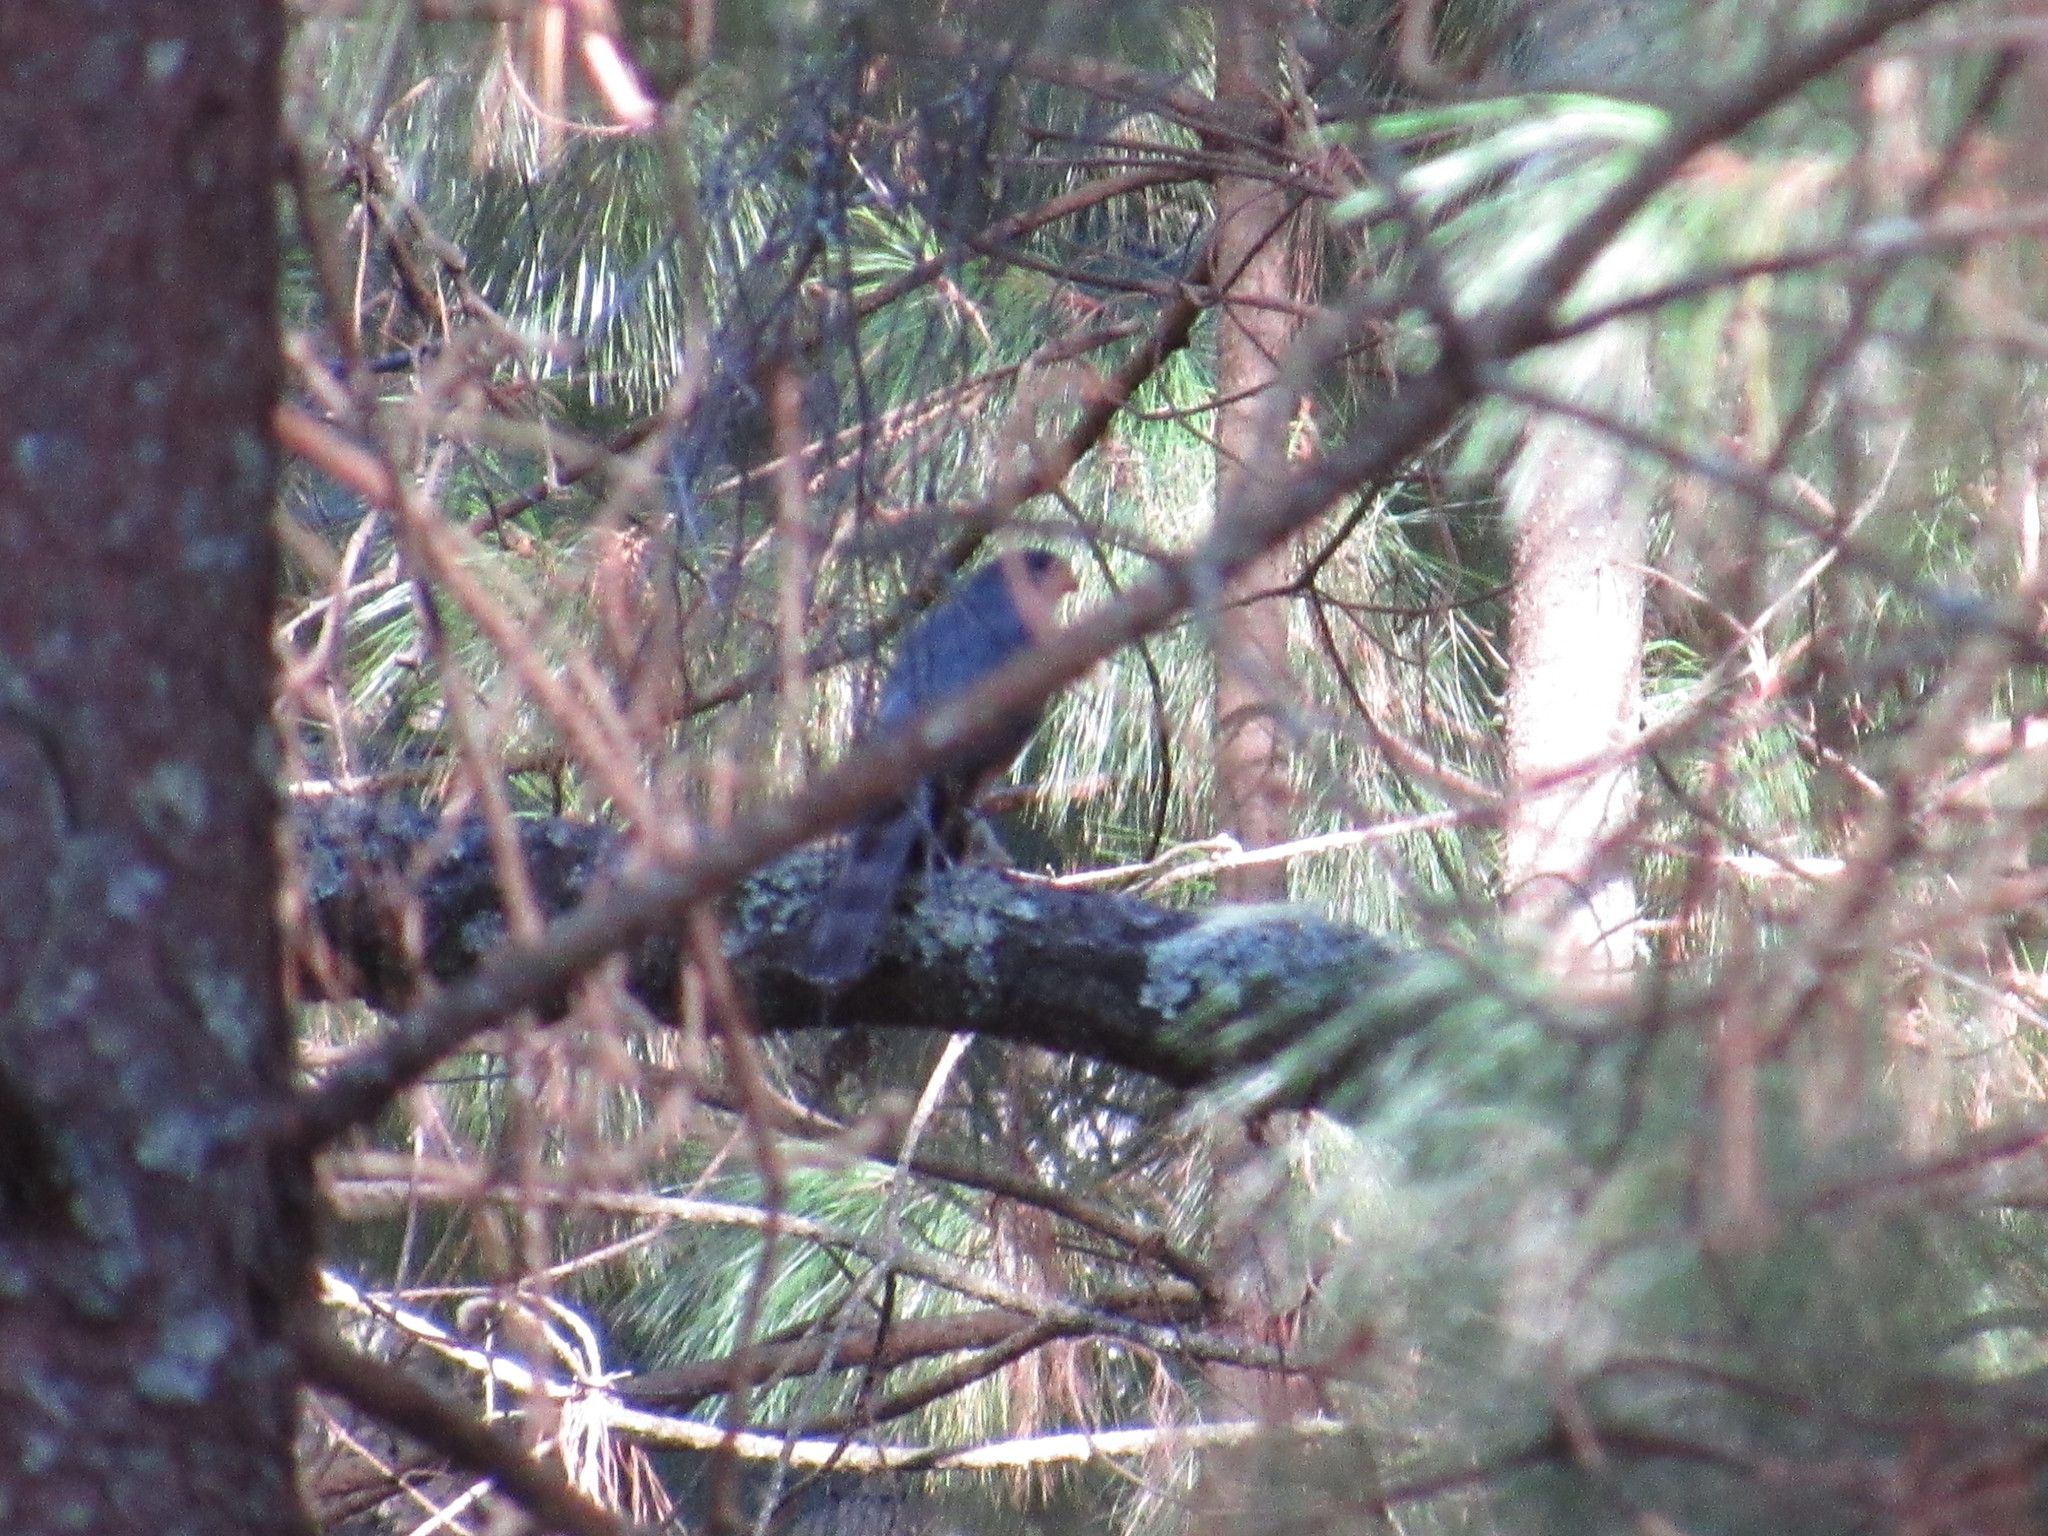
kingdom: Animalia
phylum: Chordata
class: Aves
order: Accipitriformes
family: Accipitridae
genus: Accipiter
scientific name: Accipiter cooperii
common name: Cooper's hawk
